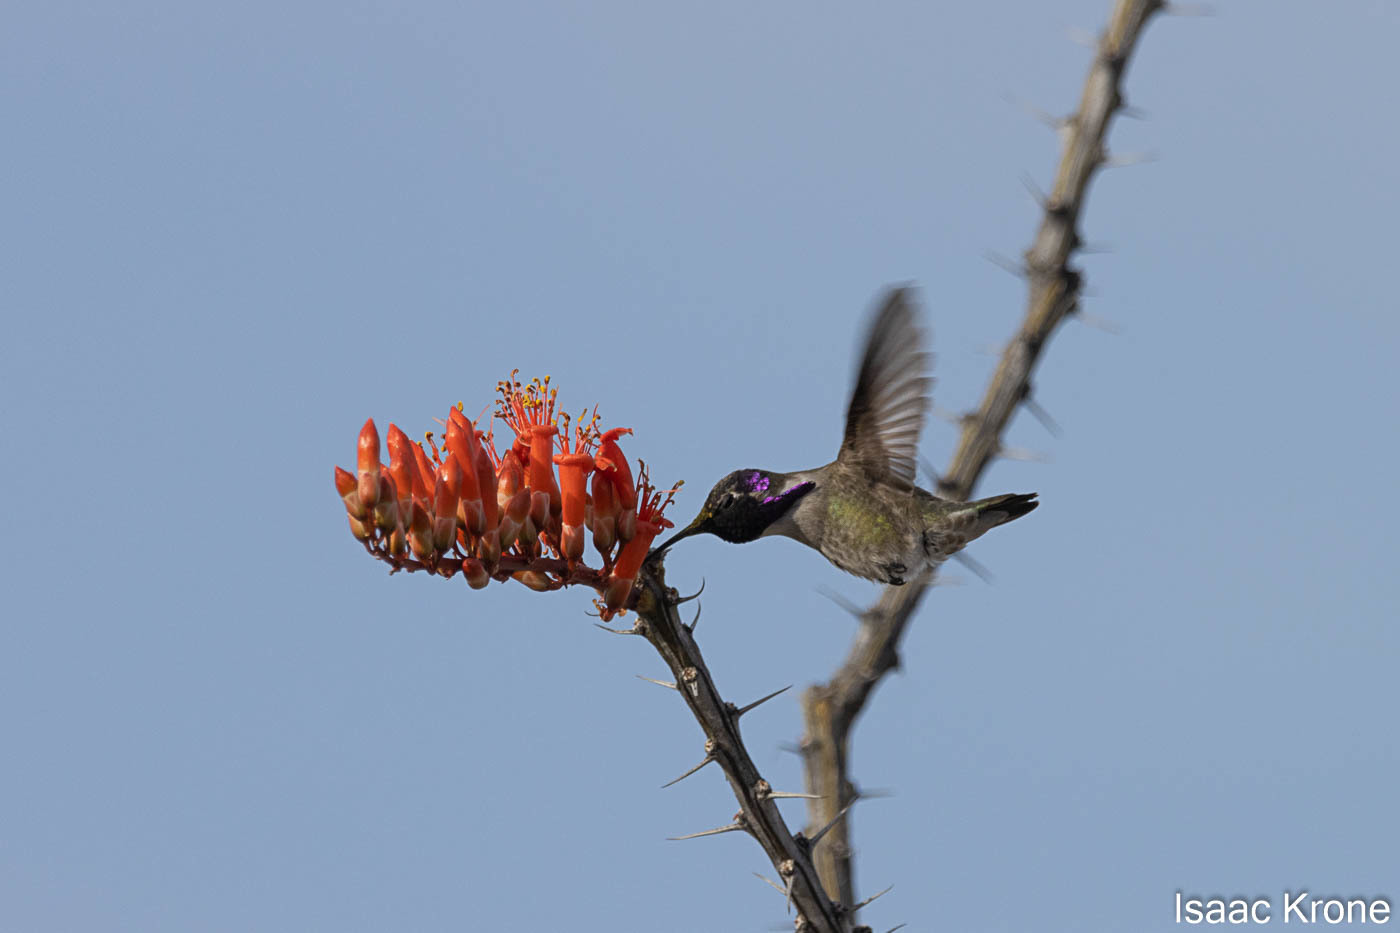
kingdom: Animalia
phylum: Chordata
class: Aves
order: Apodiformes
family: Trochilidae
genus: Calypte
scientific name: Calypte costae
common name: Costa's hummingbird
